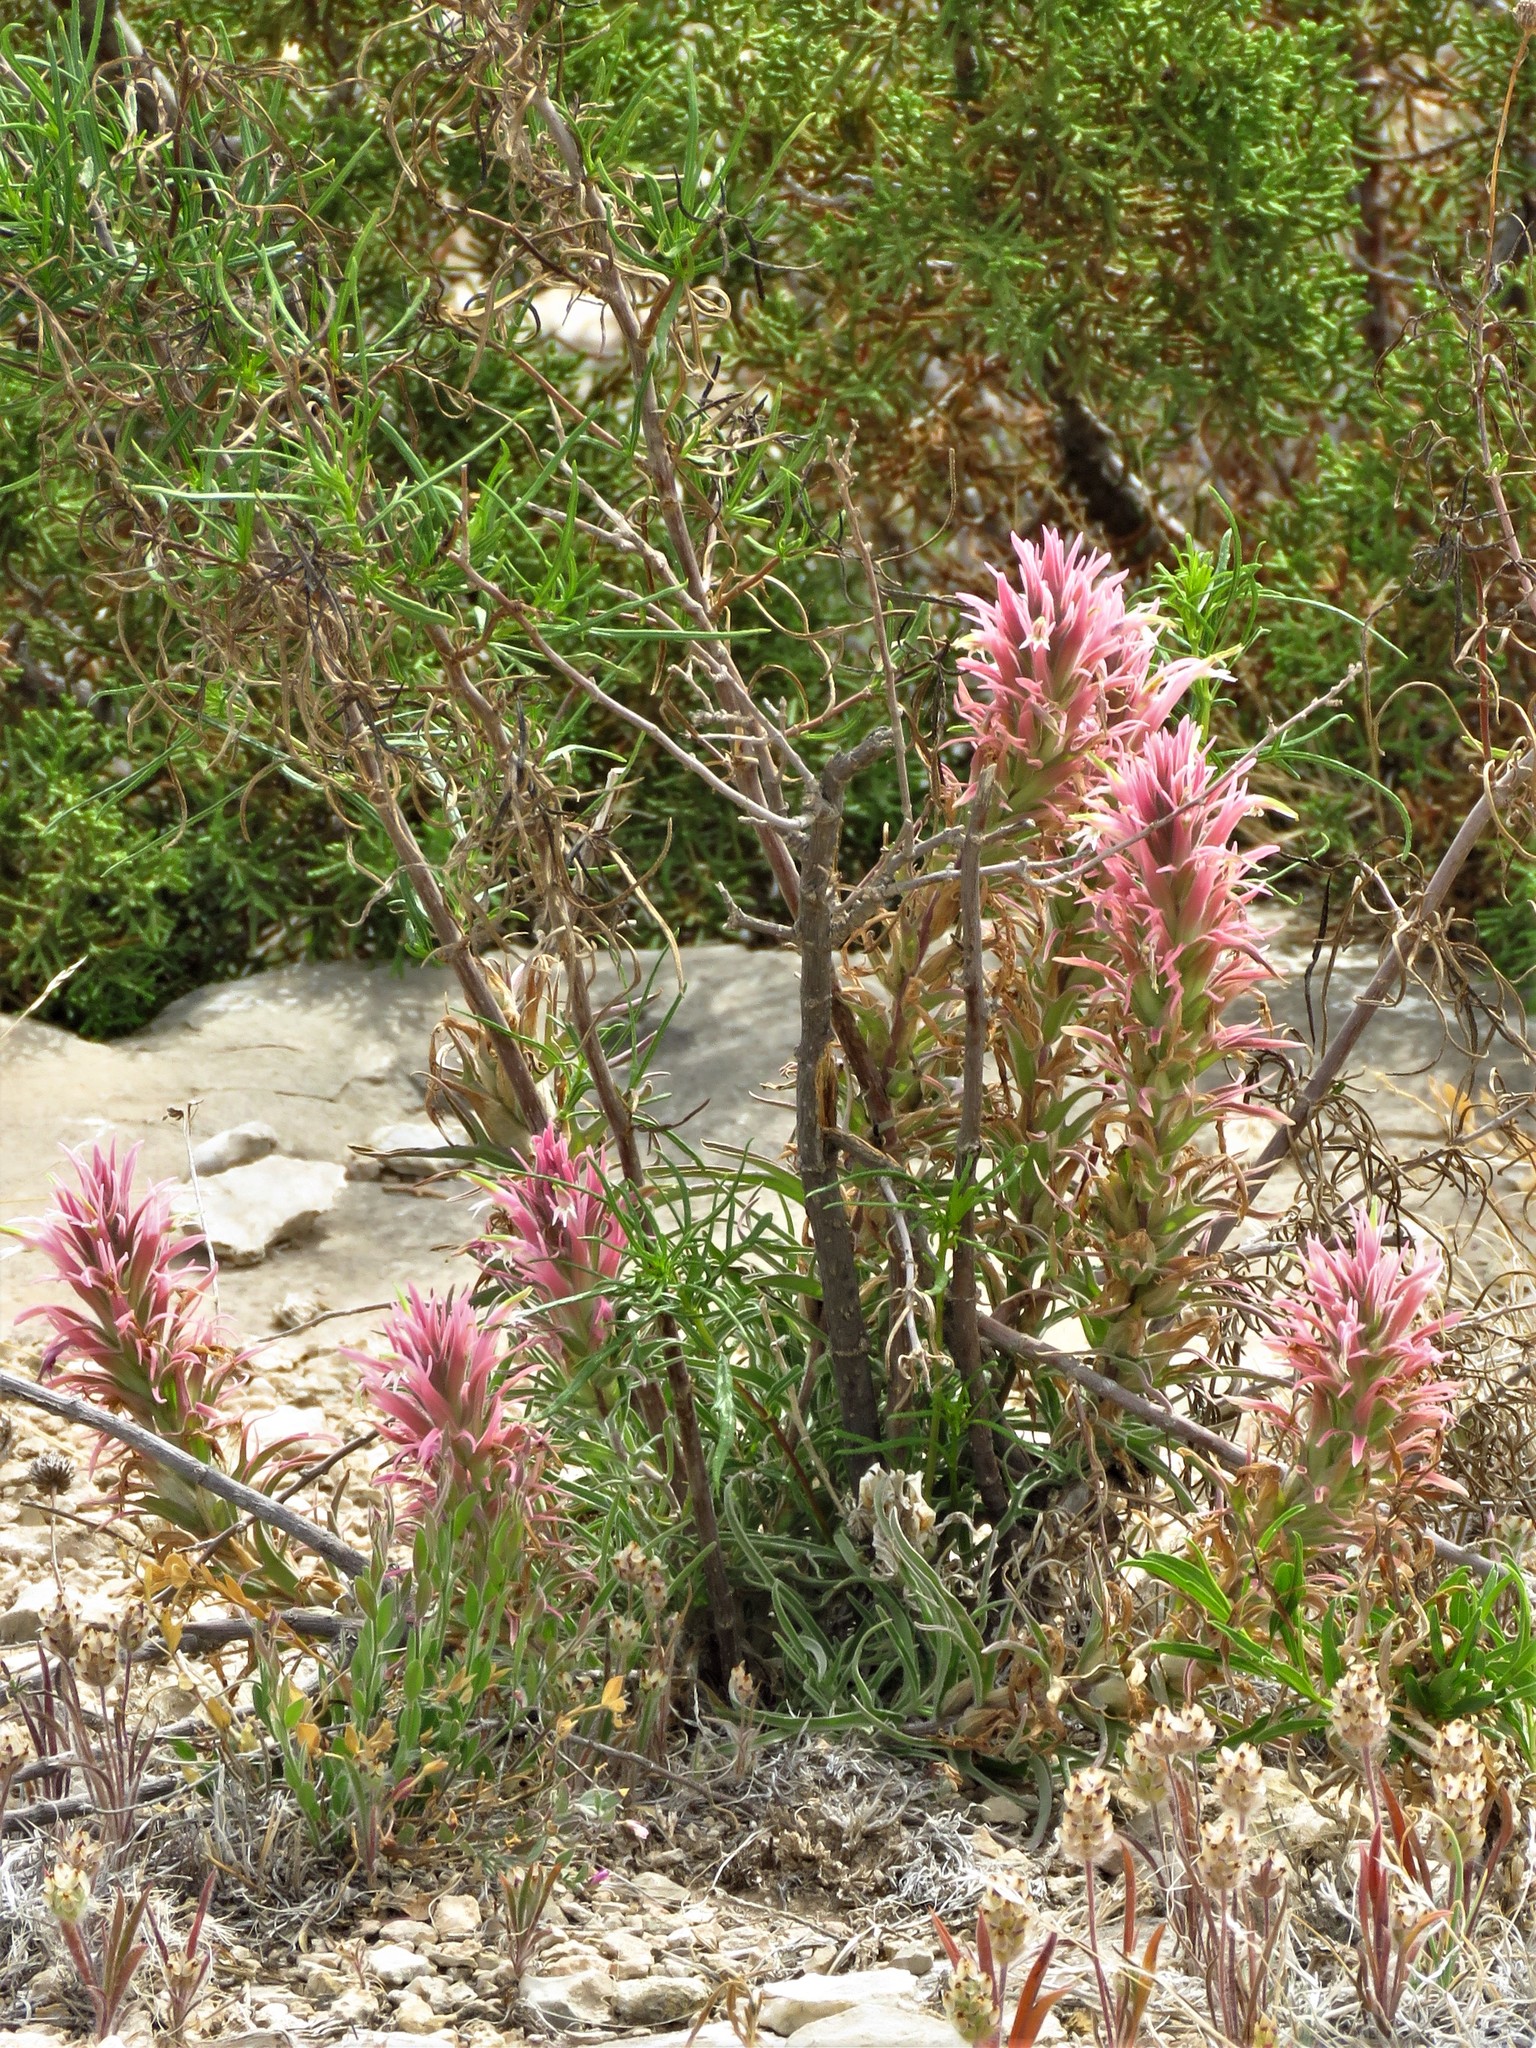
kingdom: Plantae
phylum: Tracheophyta
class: Magnoliopsida
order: Lamiales
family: Orobanchaceae
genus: Castilleja
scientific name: Castilleja sessiliflora
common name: Downy paintbrush
